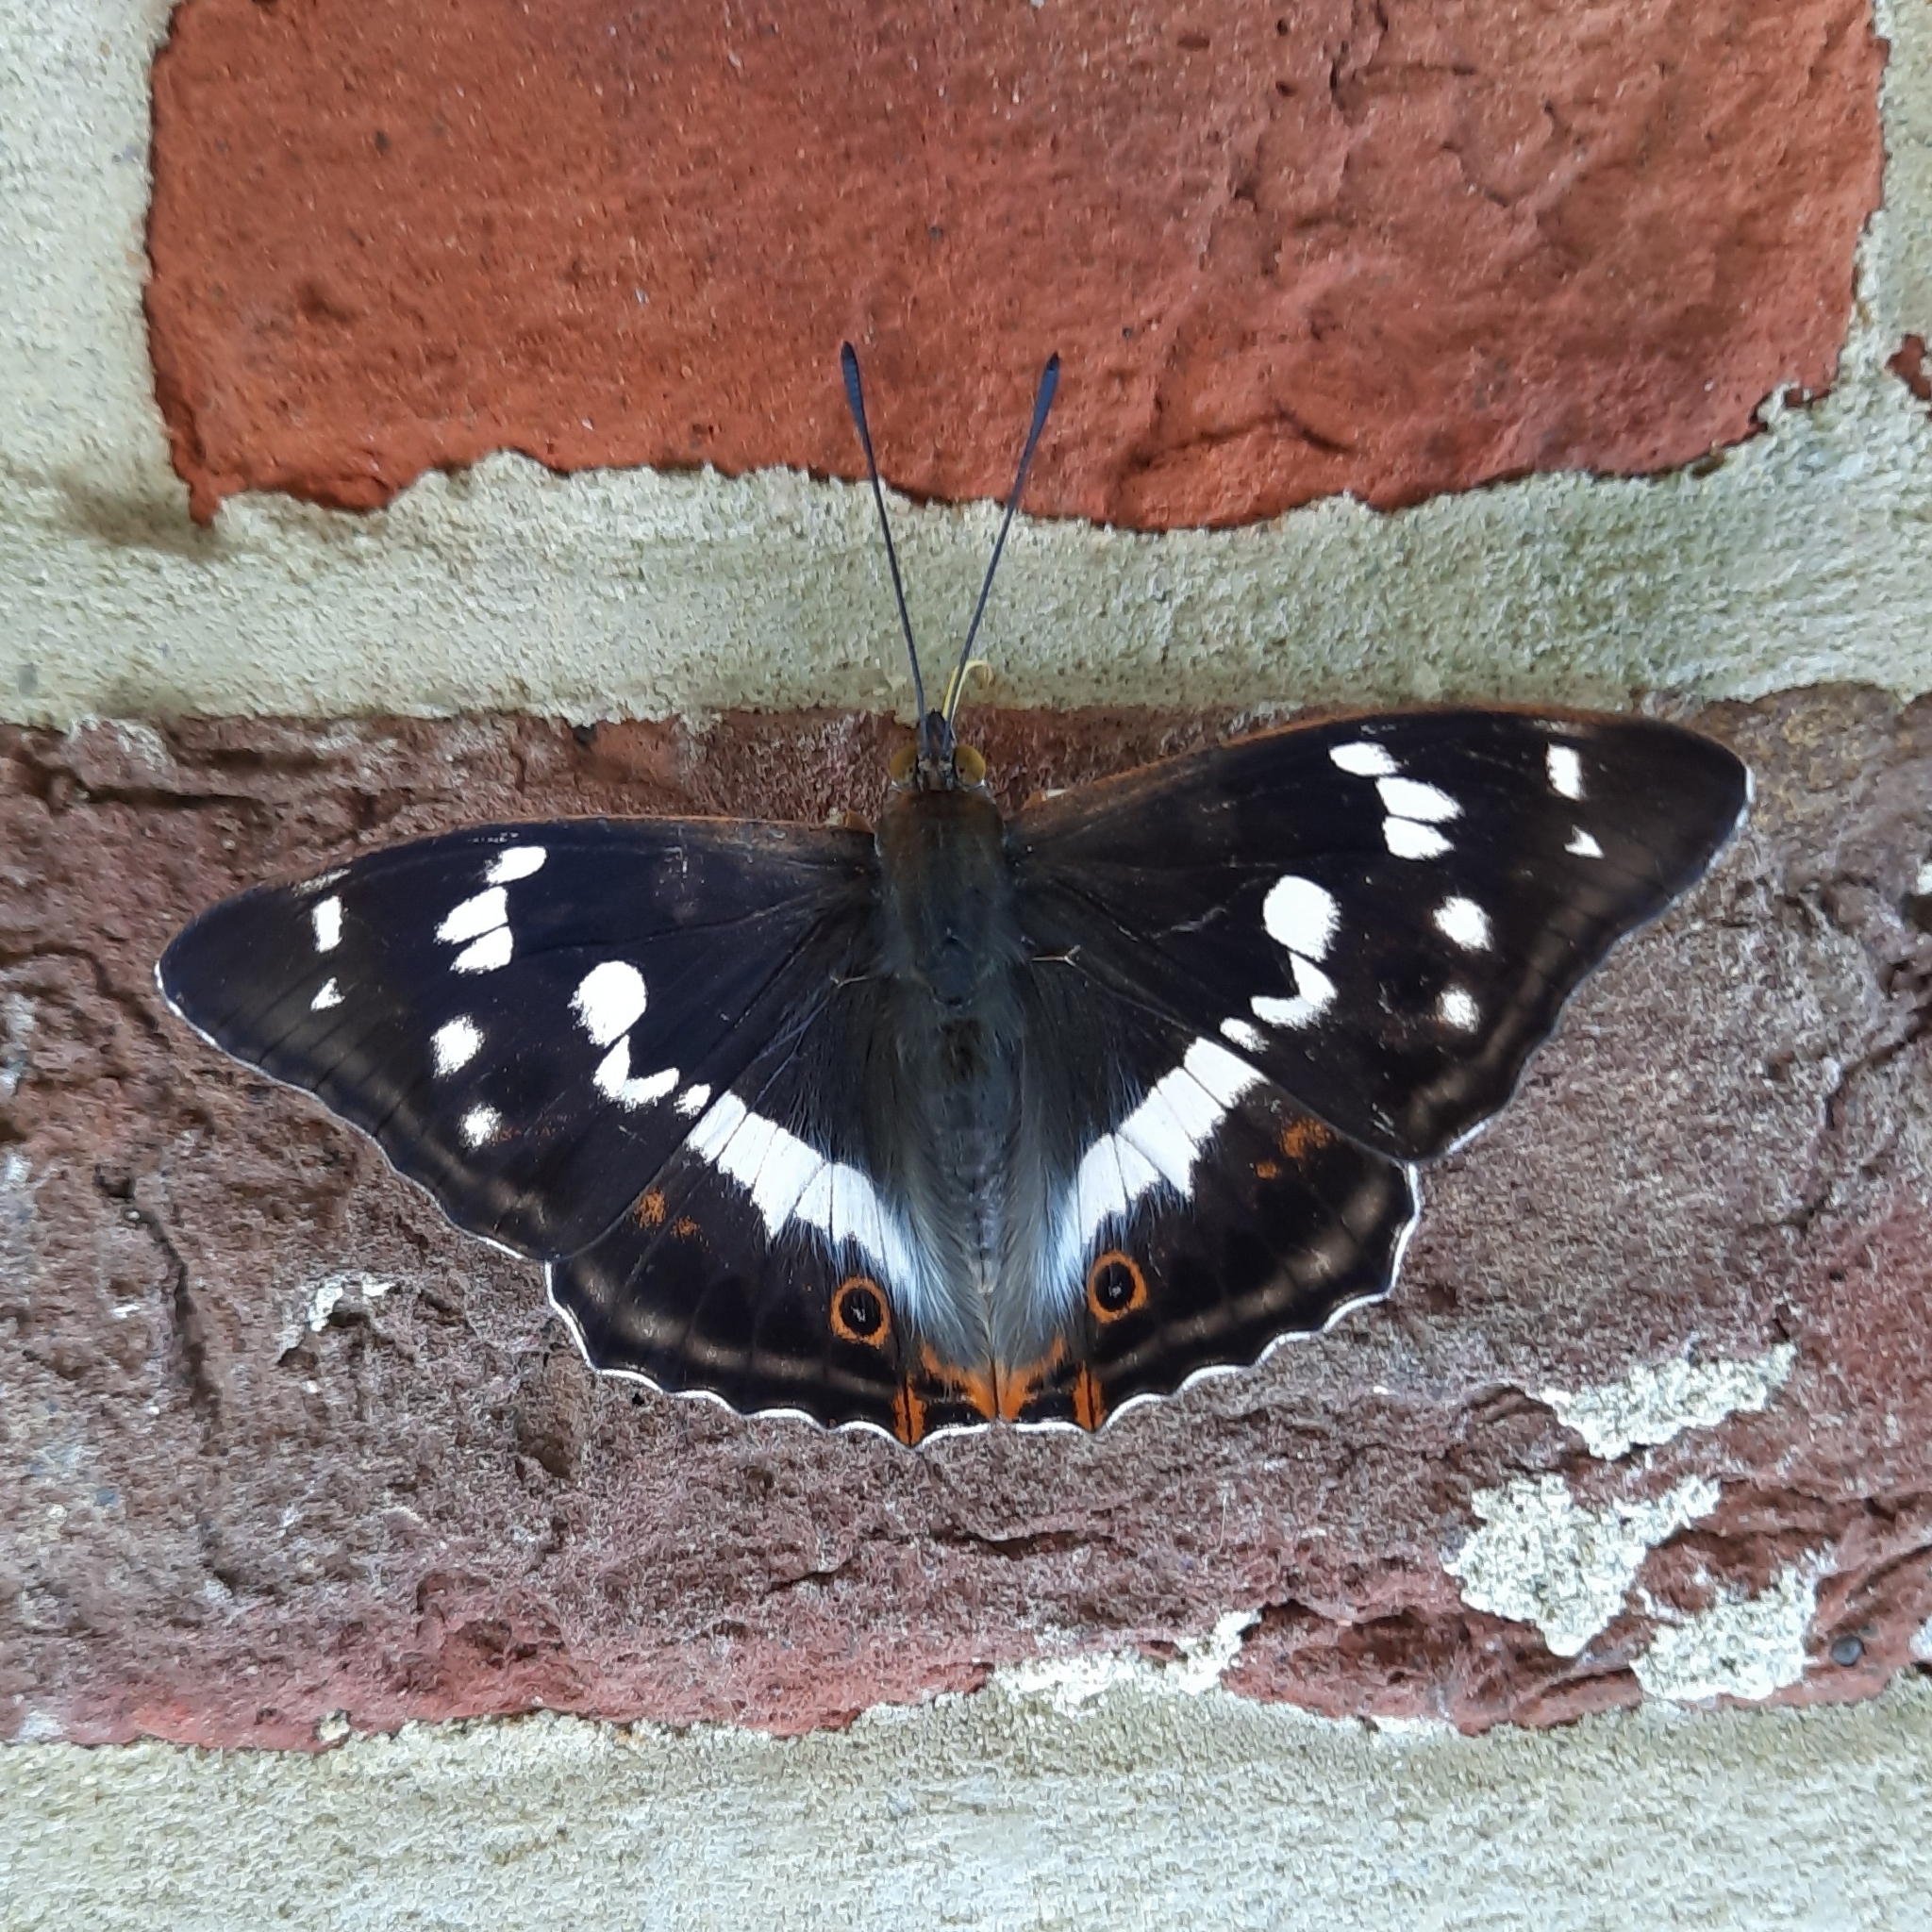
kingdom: Animalia
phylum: Arthropoda
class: Insecta
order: Lepidoptera
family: Nymphalidae
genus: Apatura
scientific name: Apatura iris
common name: Purple emperor
